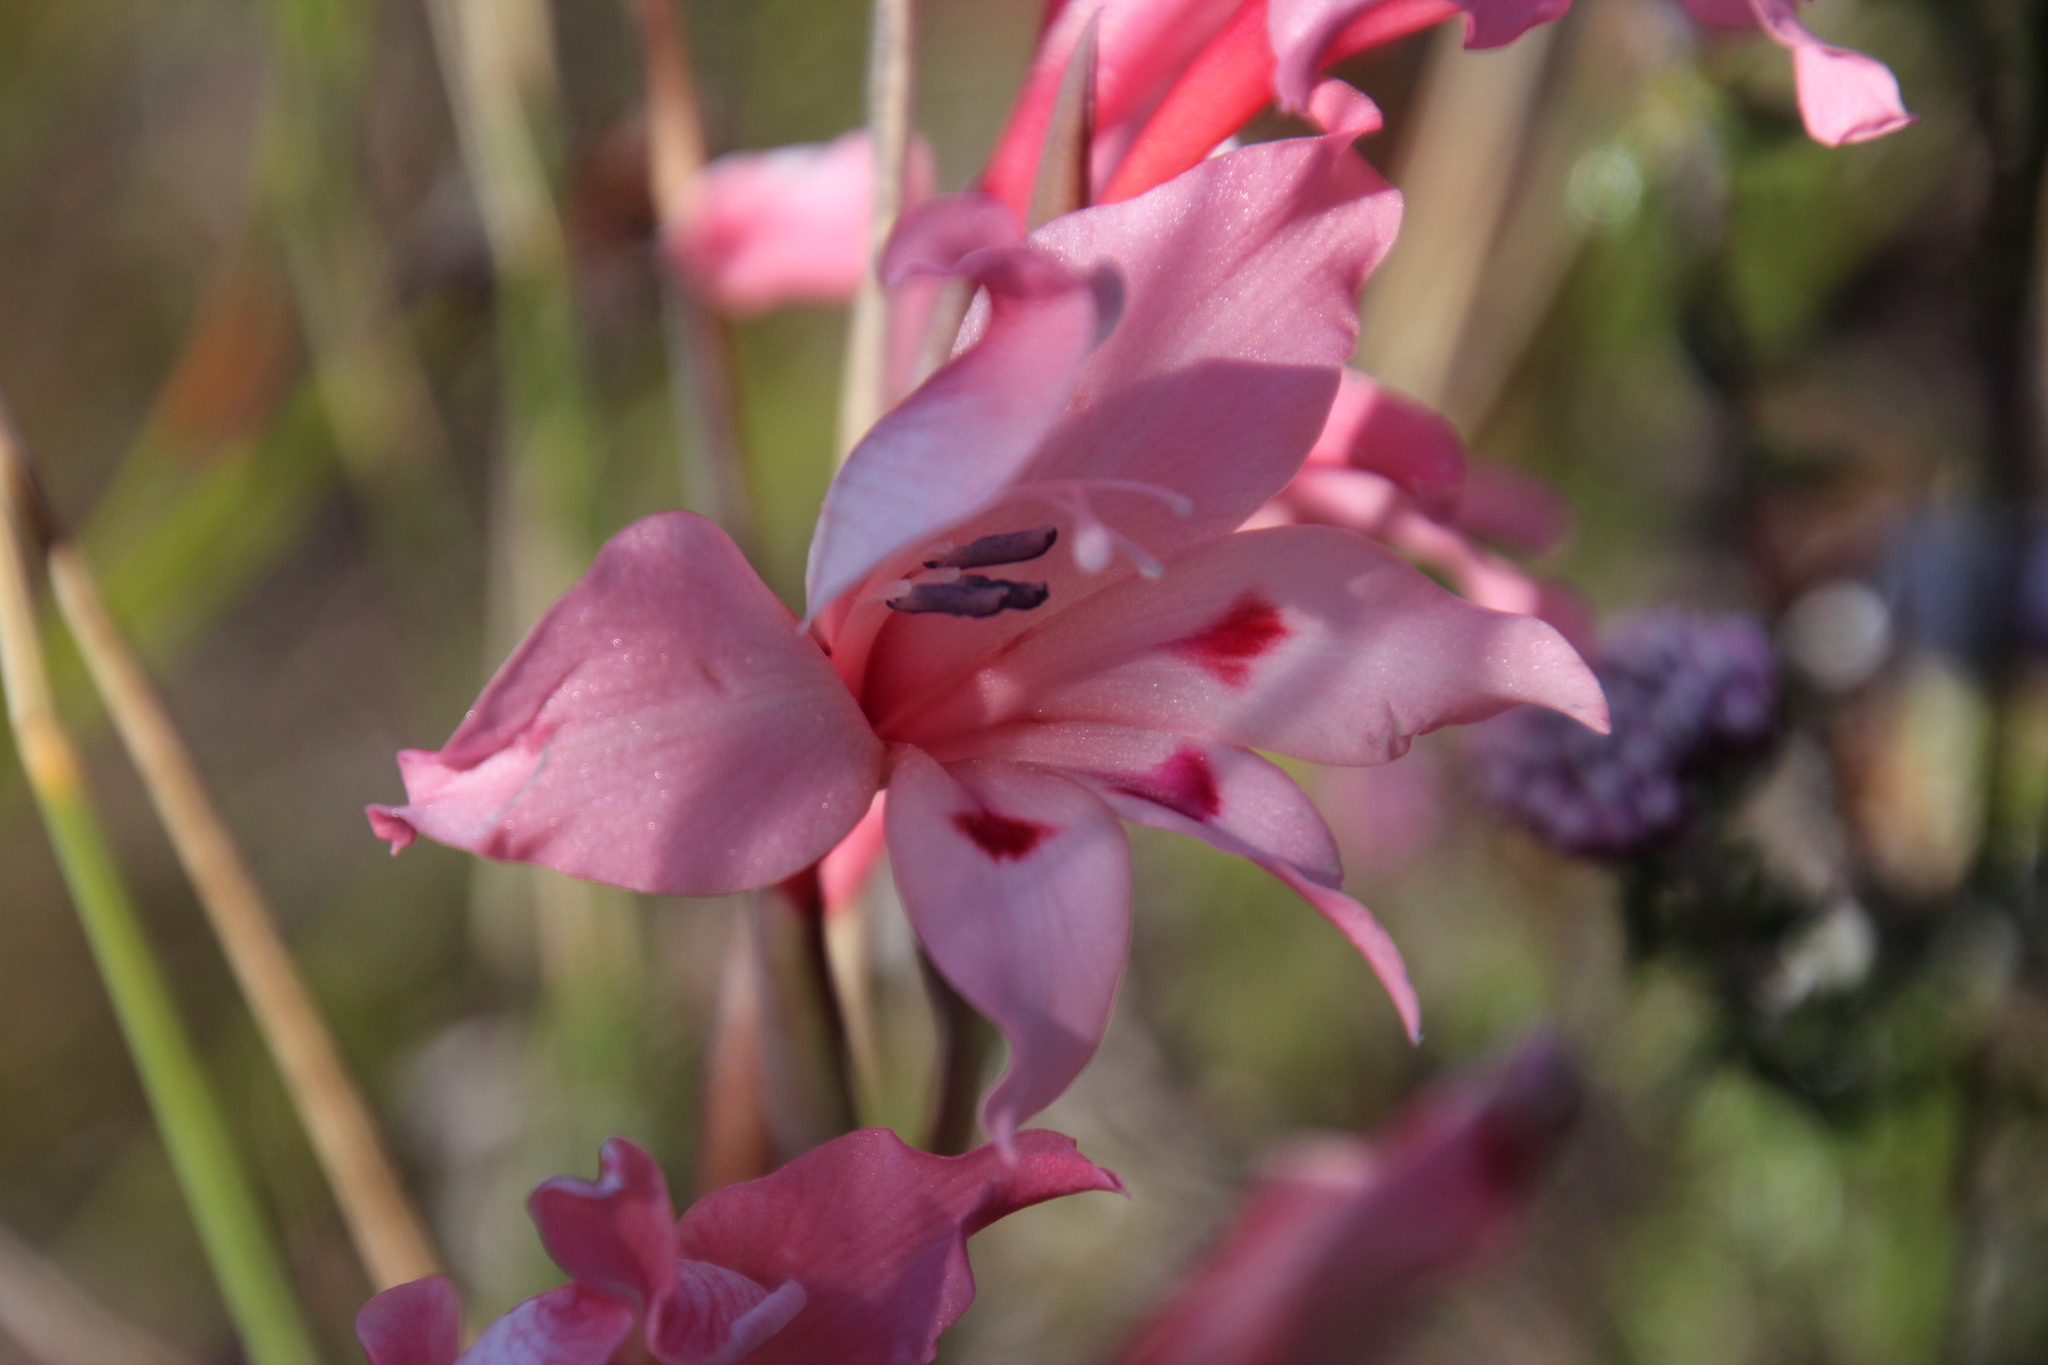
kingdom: Plantae
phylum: Tracheophyta
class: Liliopsida
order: Asparagales
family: Iridaceae
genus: Gladiolus
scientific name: Gladiolus carneus
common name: Painted-lady
